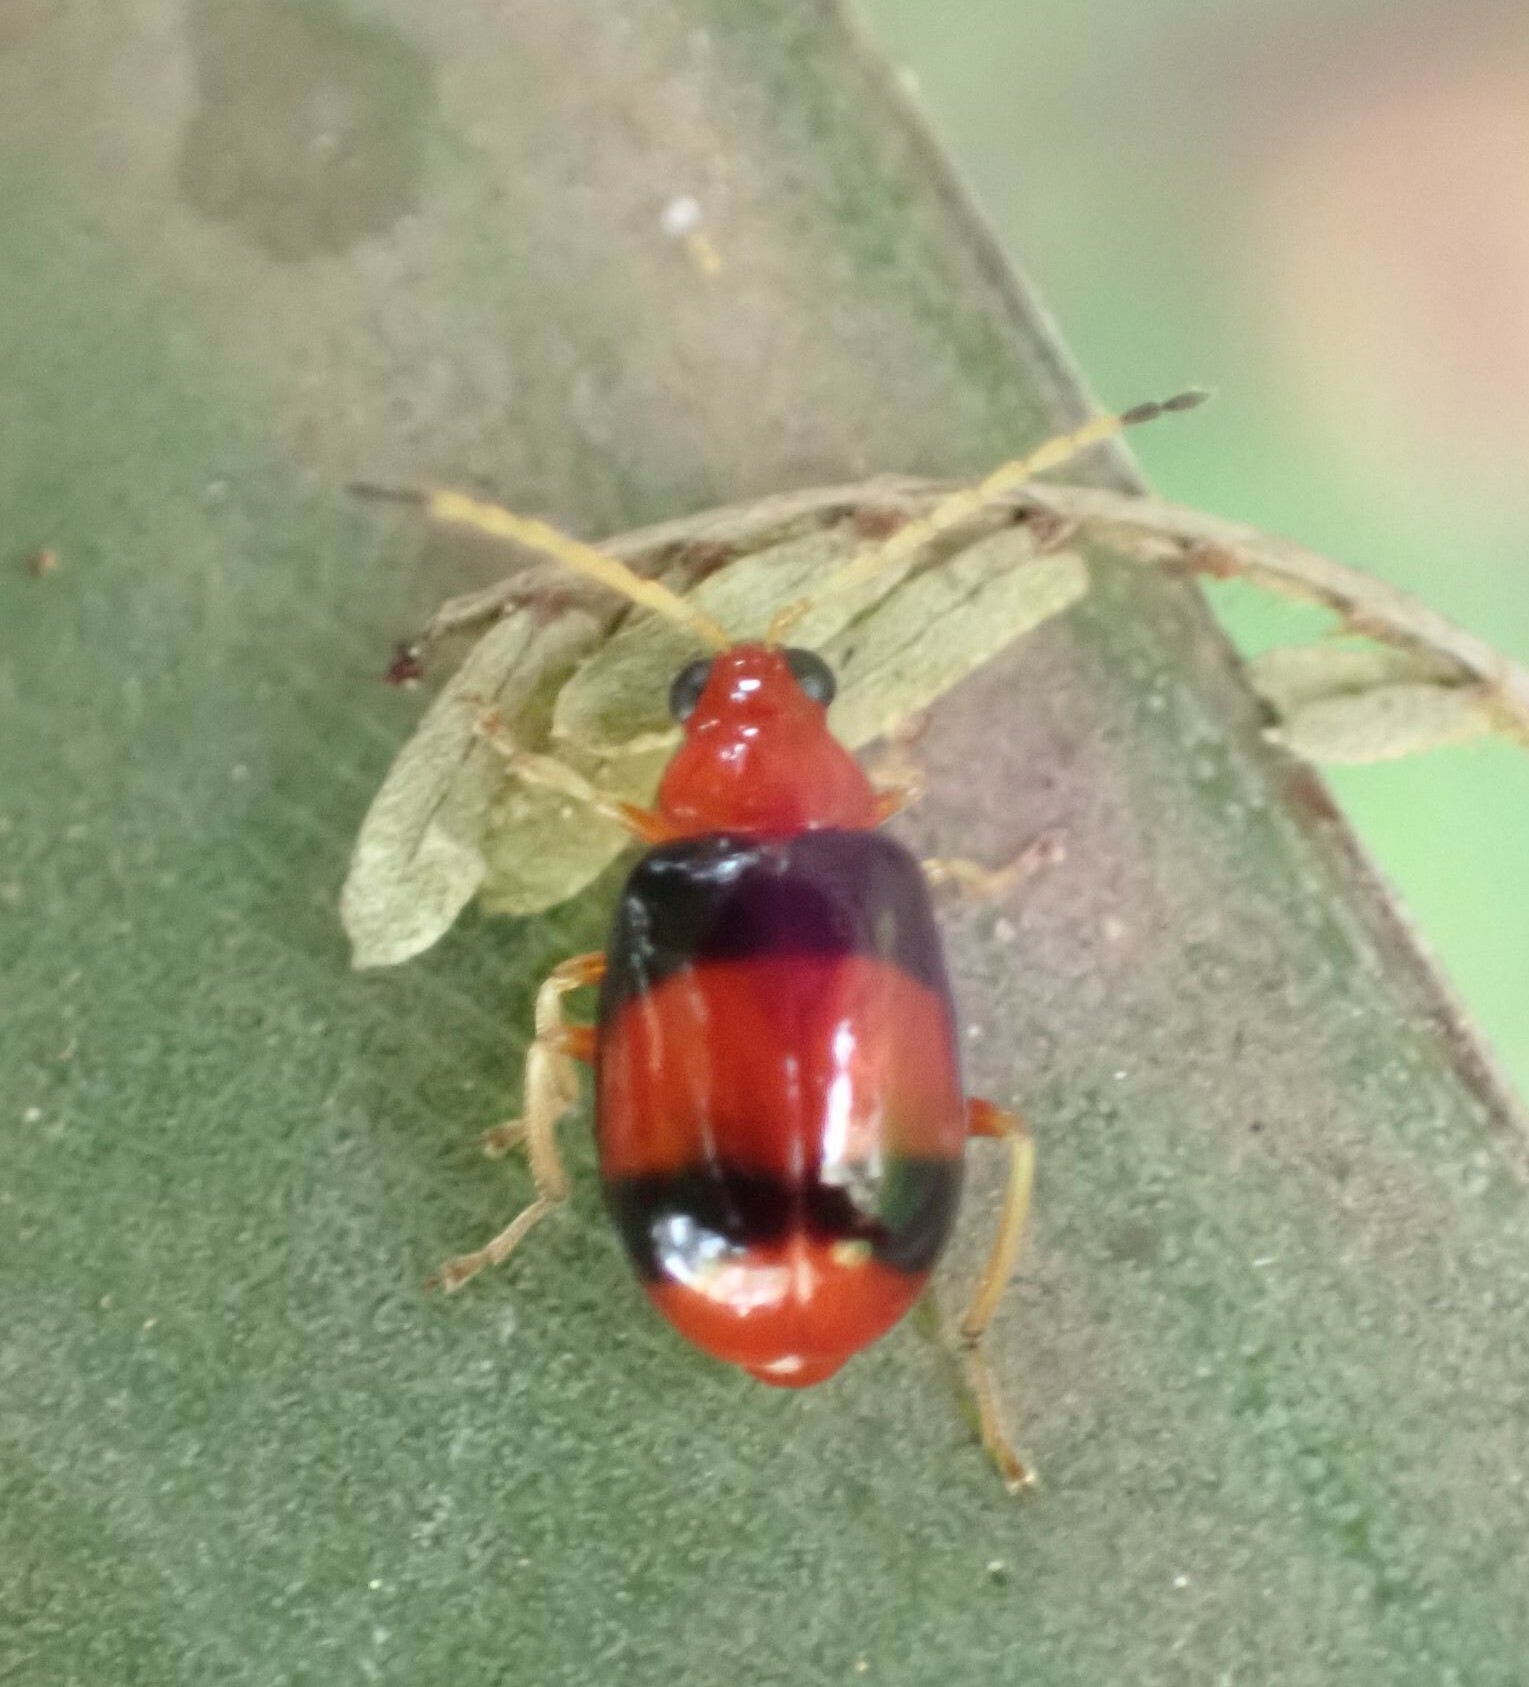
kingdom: Animalia
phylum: Arthropoda
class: Insecta
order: Coleoptera
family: Chrysomelidae
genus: Monolepta
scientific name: Monolepta
